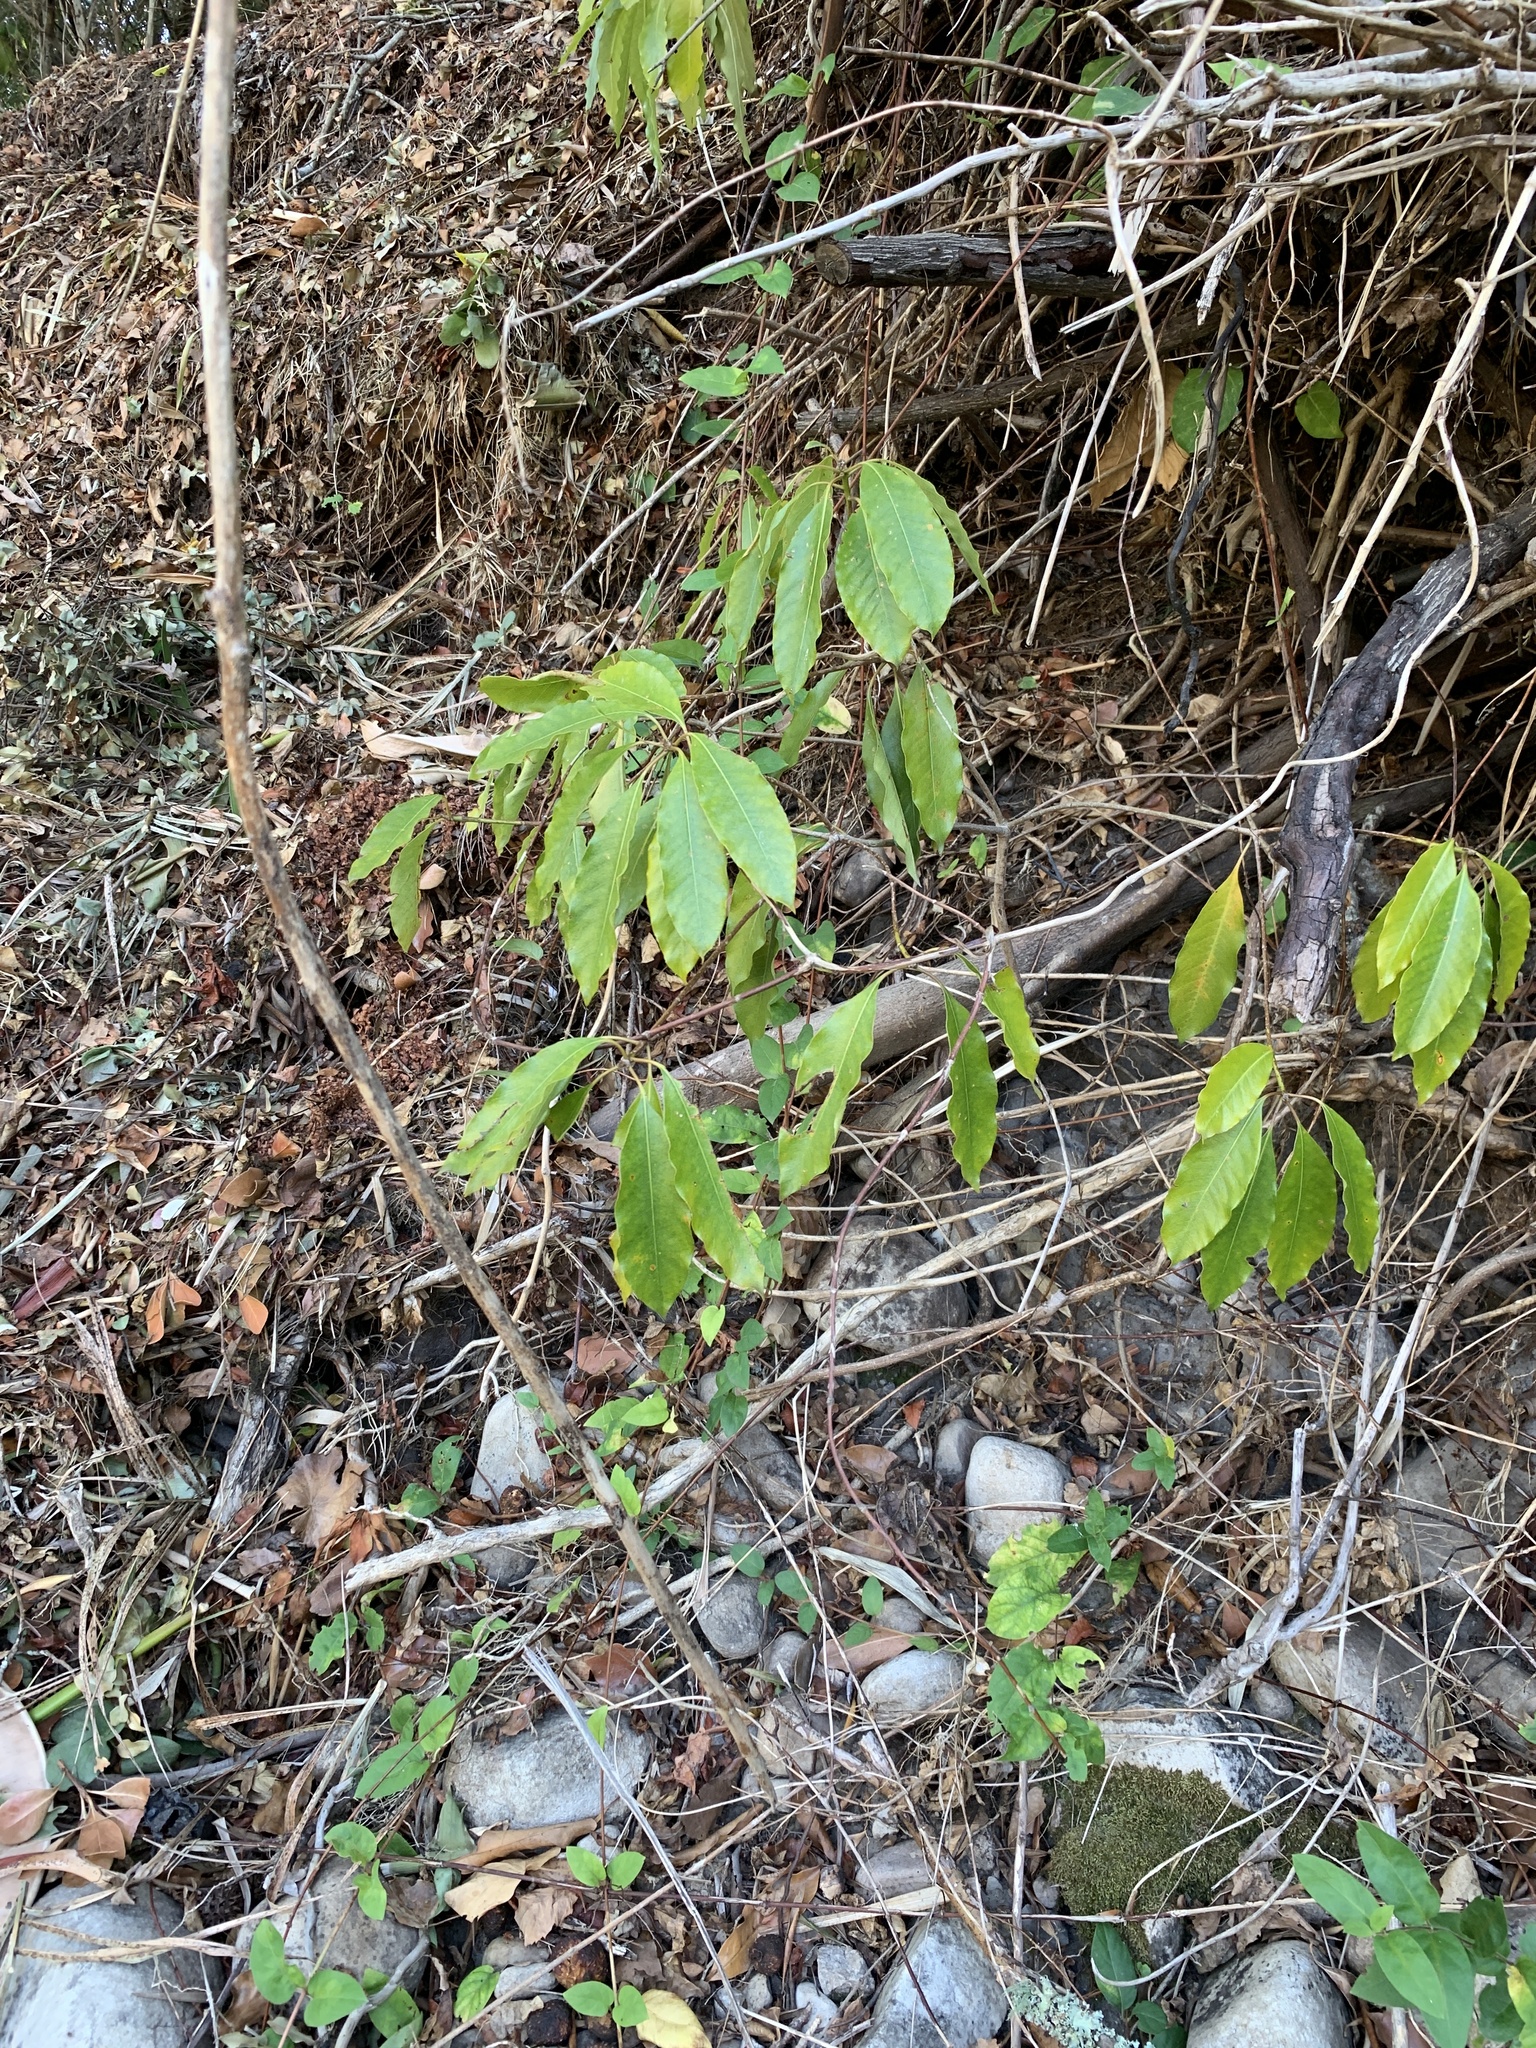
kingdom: Plantae
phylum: Tracheophyta
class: Magnoliopsida
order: Apiales
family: Pittosporaceae
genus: Pittosporum
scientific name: Pittosporum undulatum
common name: Australian cheesewood
